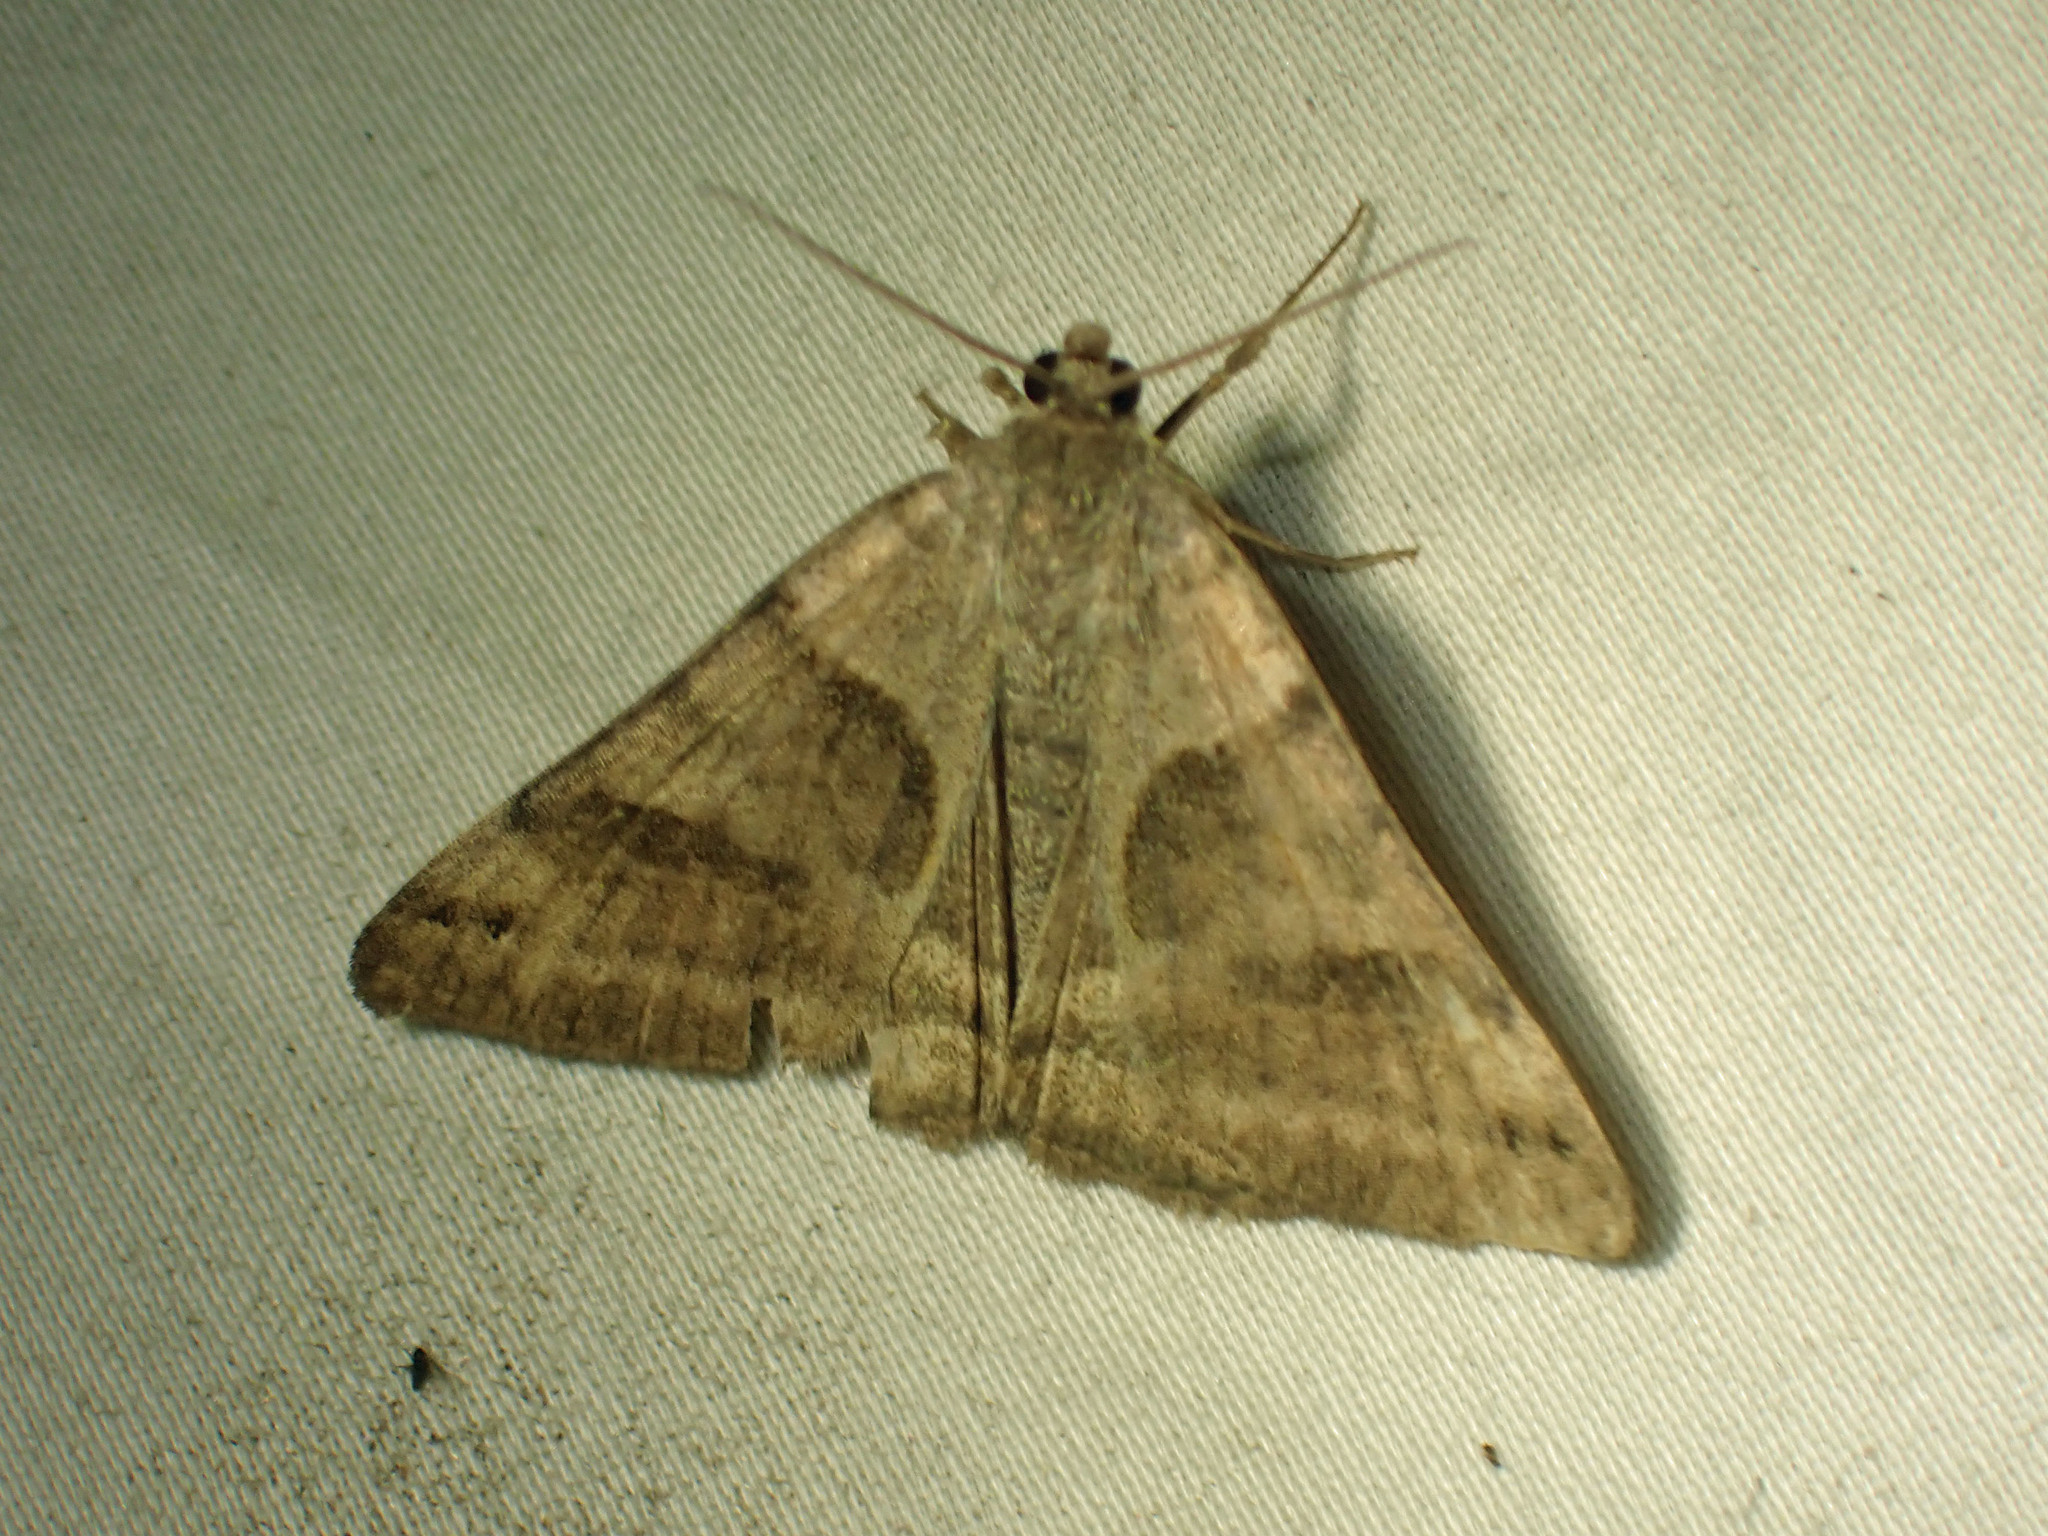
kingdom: Animalia
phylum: Arthropoda
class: Insecta
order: Lepidoptera
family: Erebidae
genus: Caenurgina
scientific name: Caenurgina erechtea
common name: Forage looper moth
